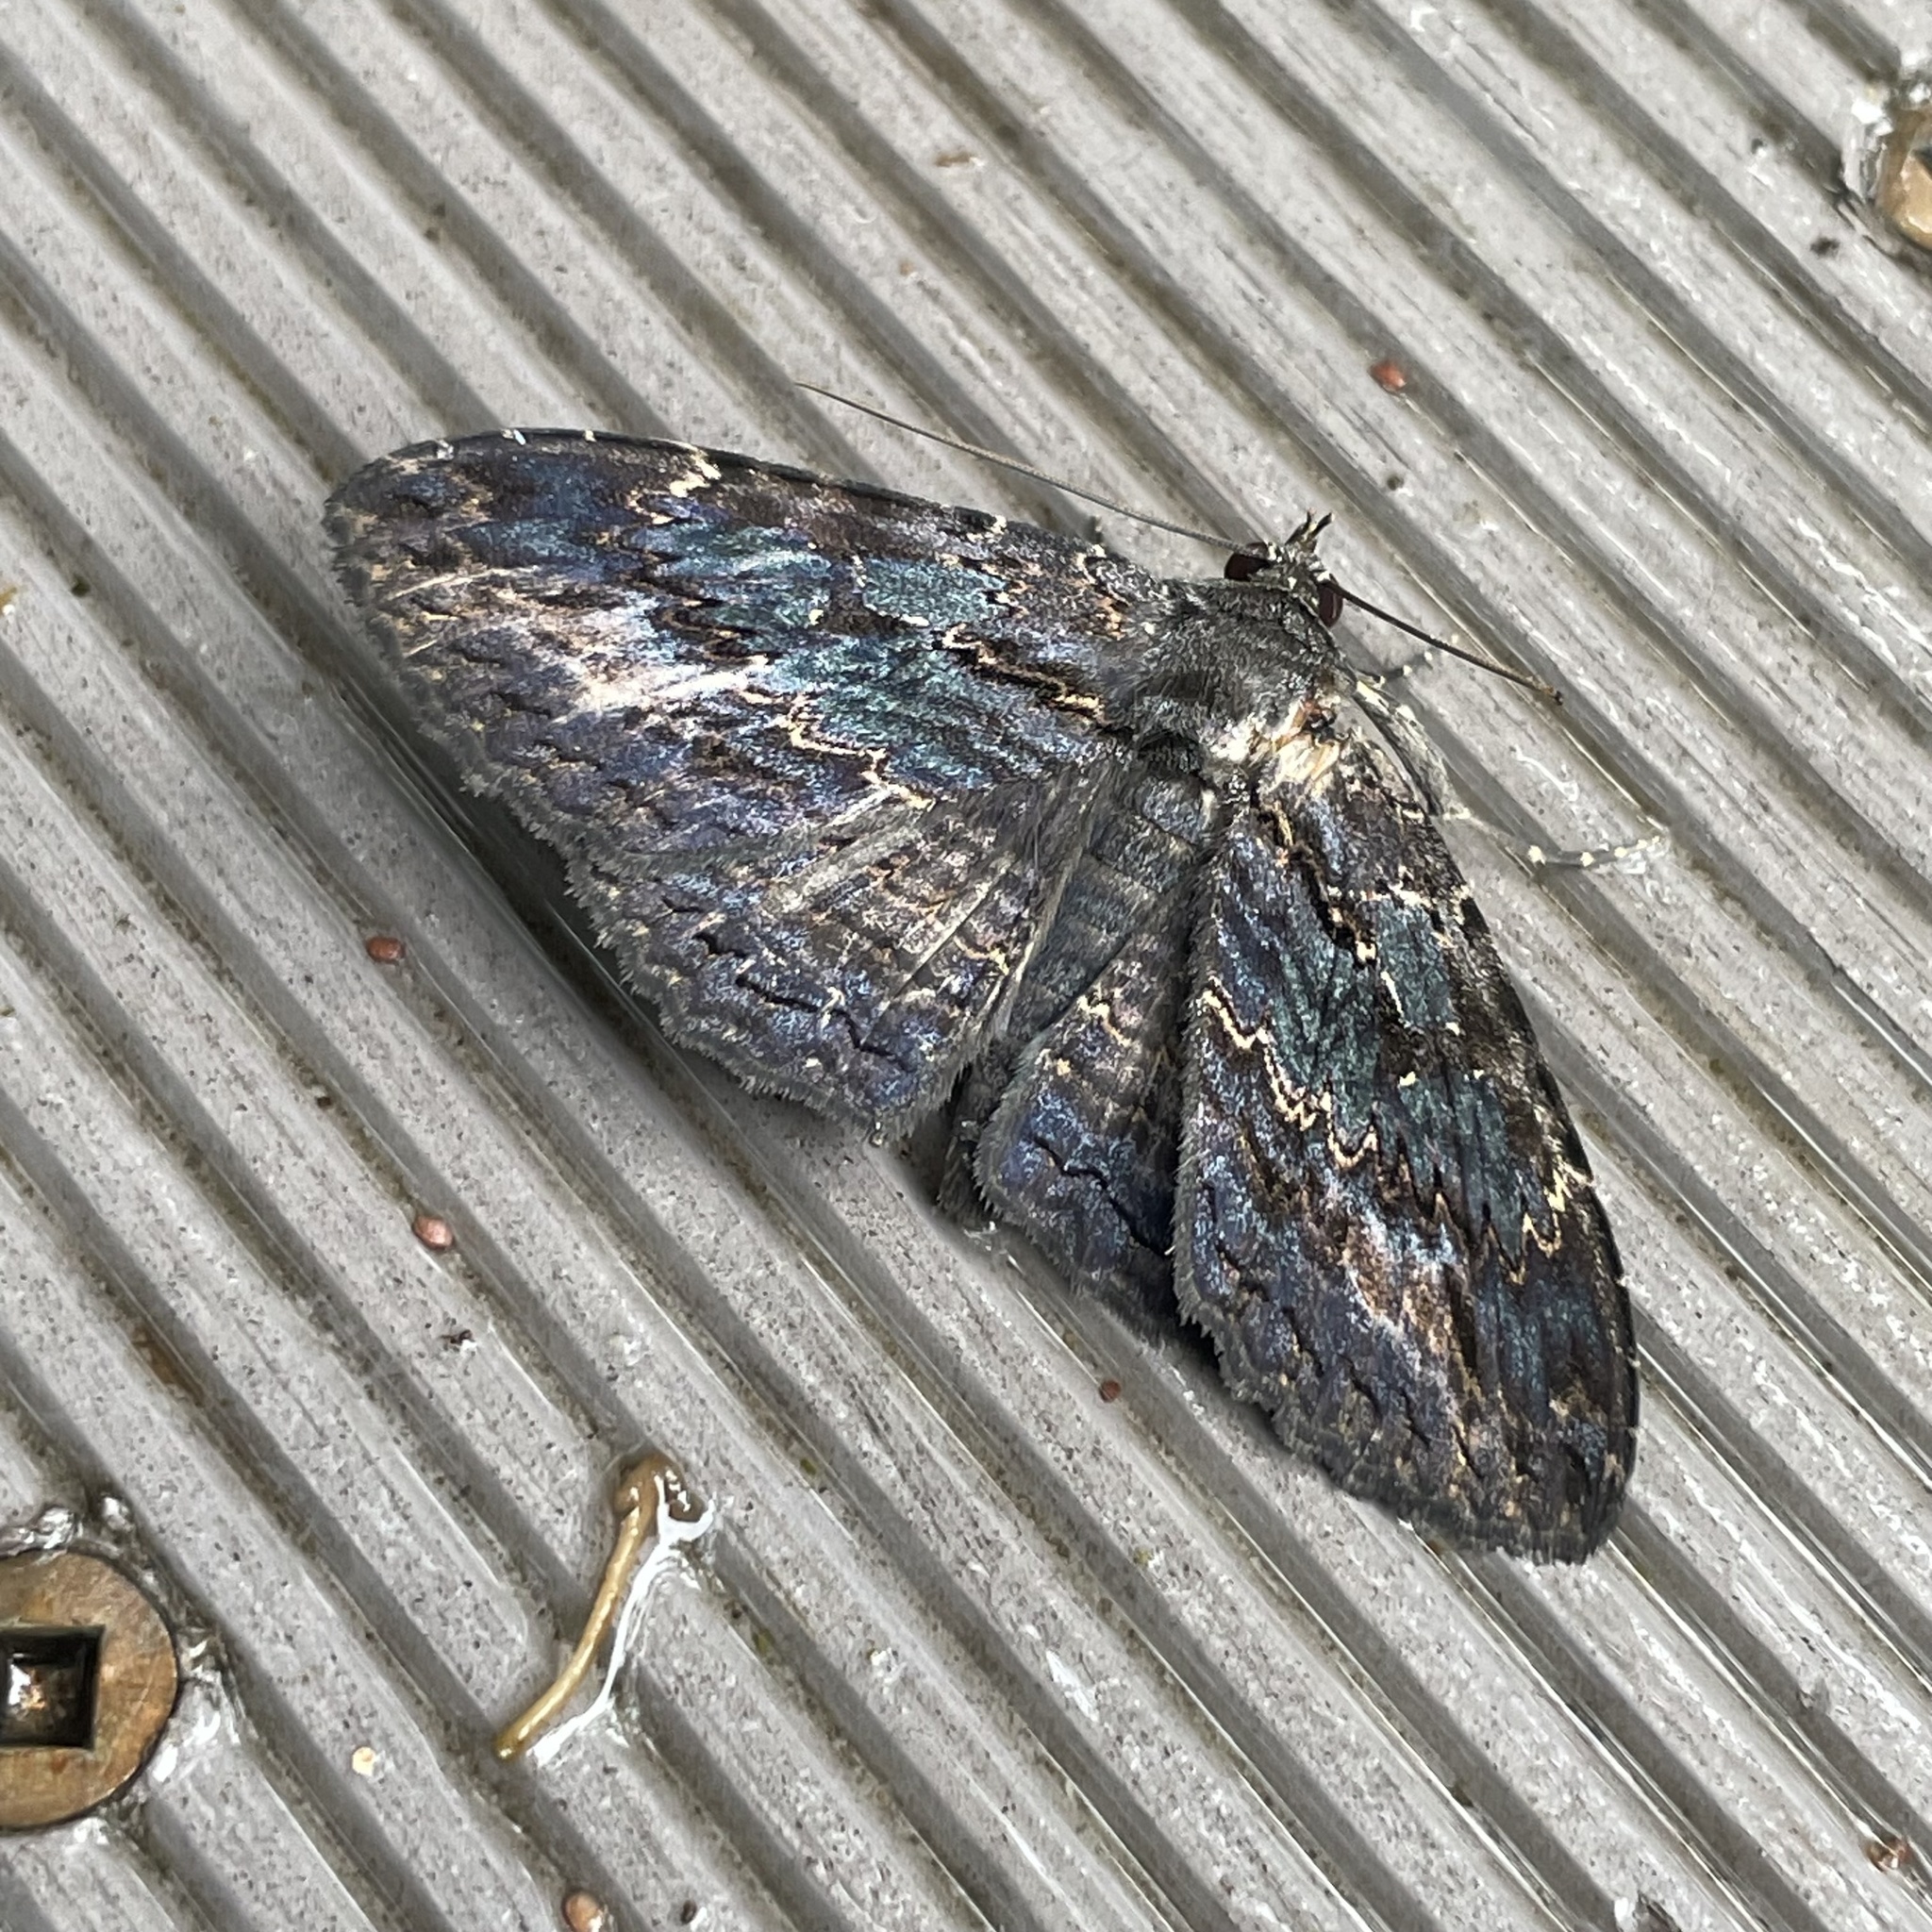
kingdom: Animalia
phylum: Arthropoda
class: Insecta
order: Lepidoptera
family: Erebidae
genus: Anisoneura
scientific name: Anisoneura salebrosa
